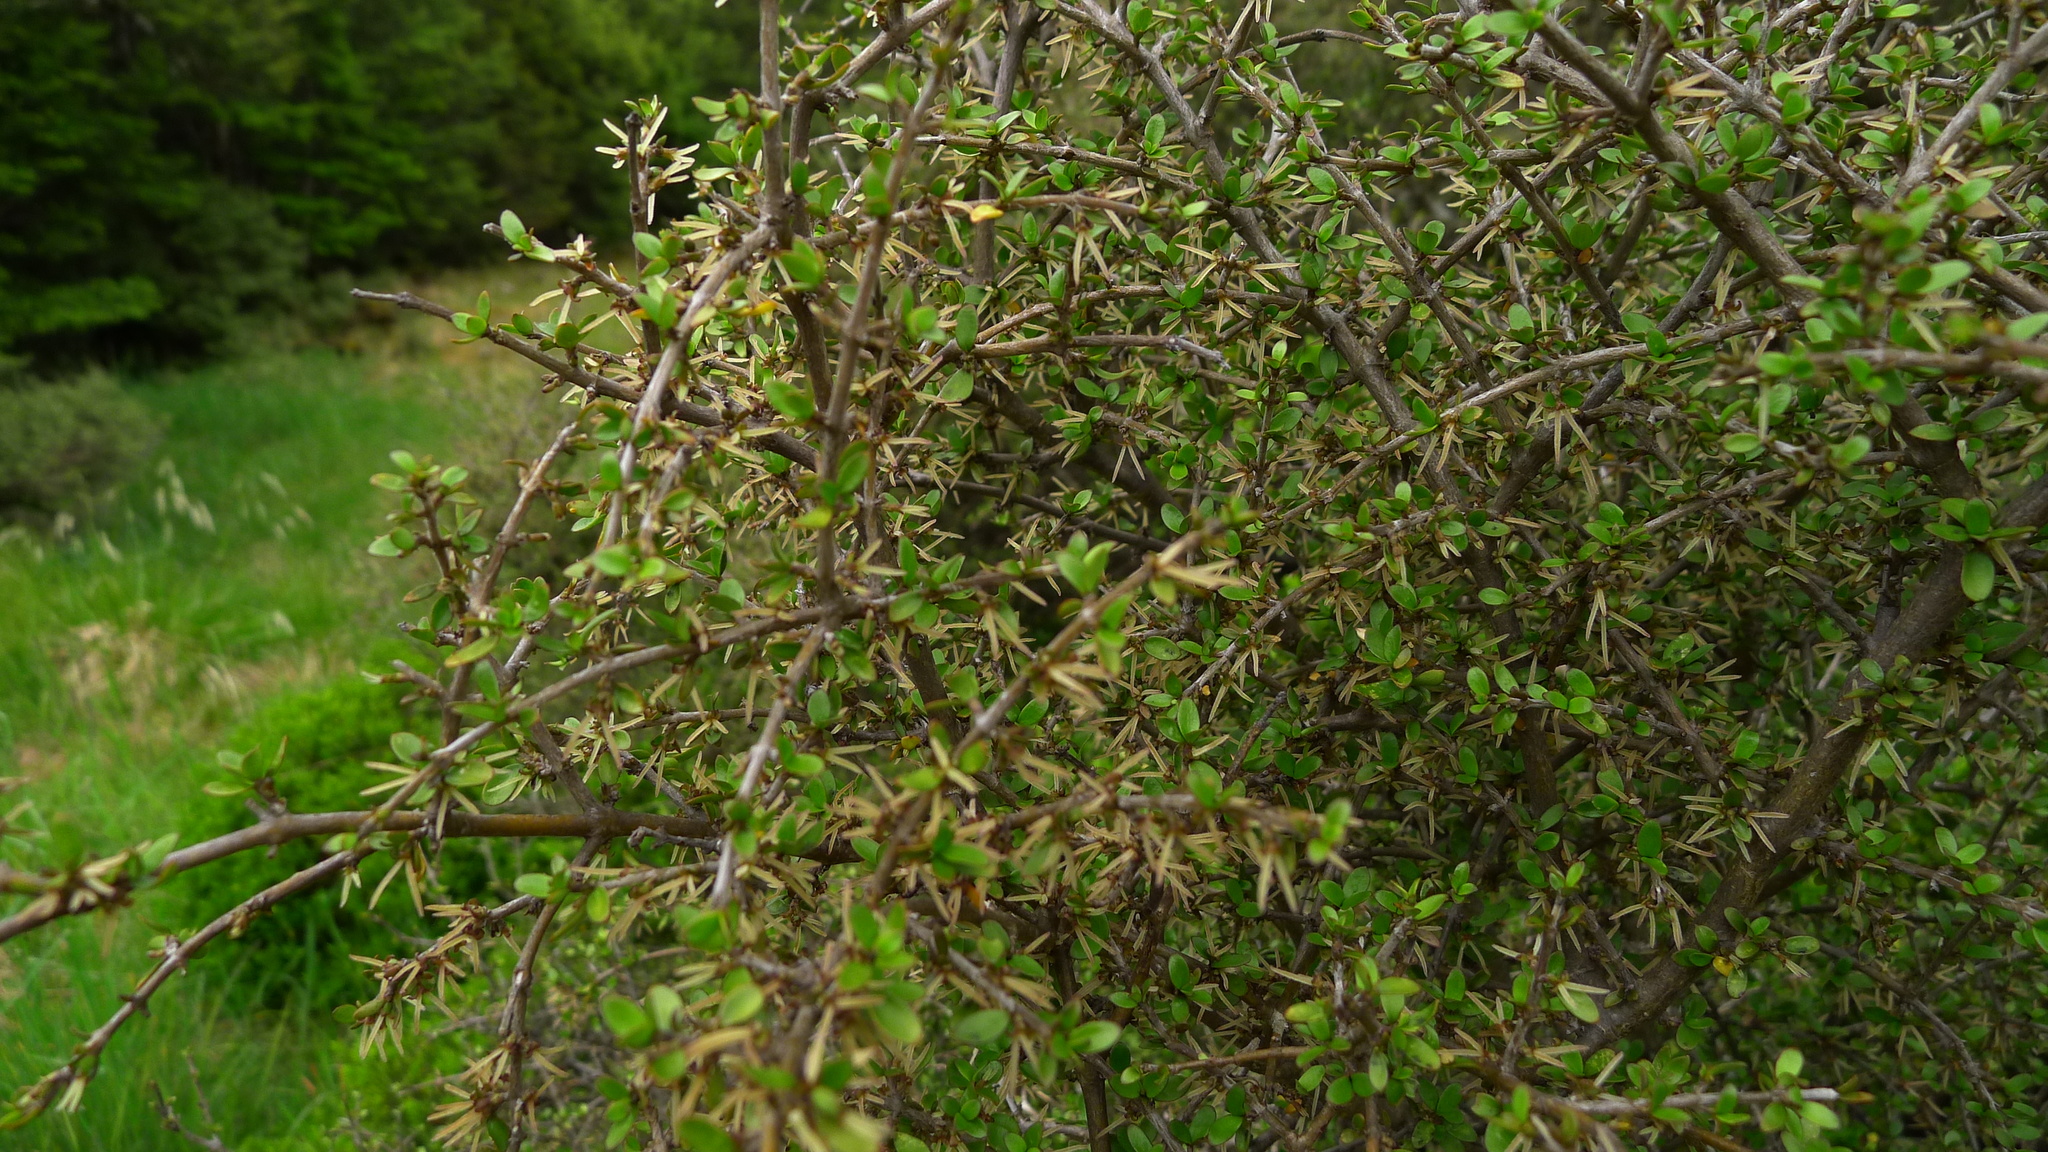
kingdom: Plantae
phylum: Tracheophyta
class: Magnoliopsida
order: Gentianales
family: Rubiaceae
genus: Coprosma
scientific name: Coprosma propinqua
